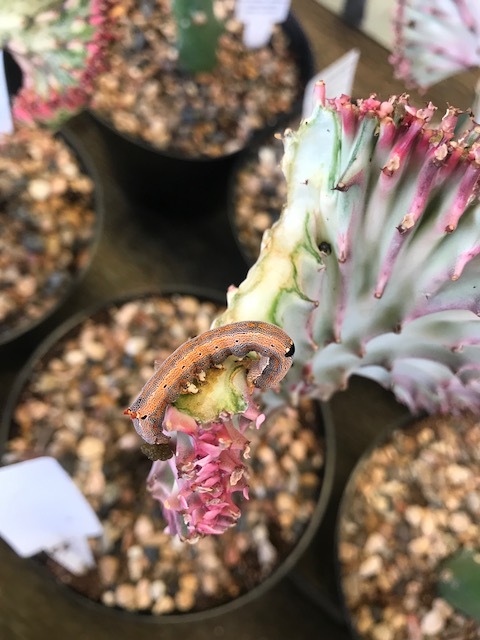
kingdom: Animalia
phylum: Arthropoda
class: Insecta
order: Lepidoptera
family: Erebidae
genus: Achaea
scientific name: Achaea janata
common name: Croton caterpillar
